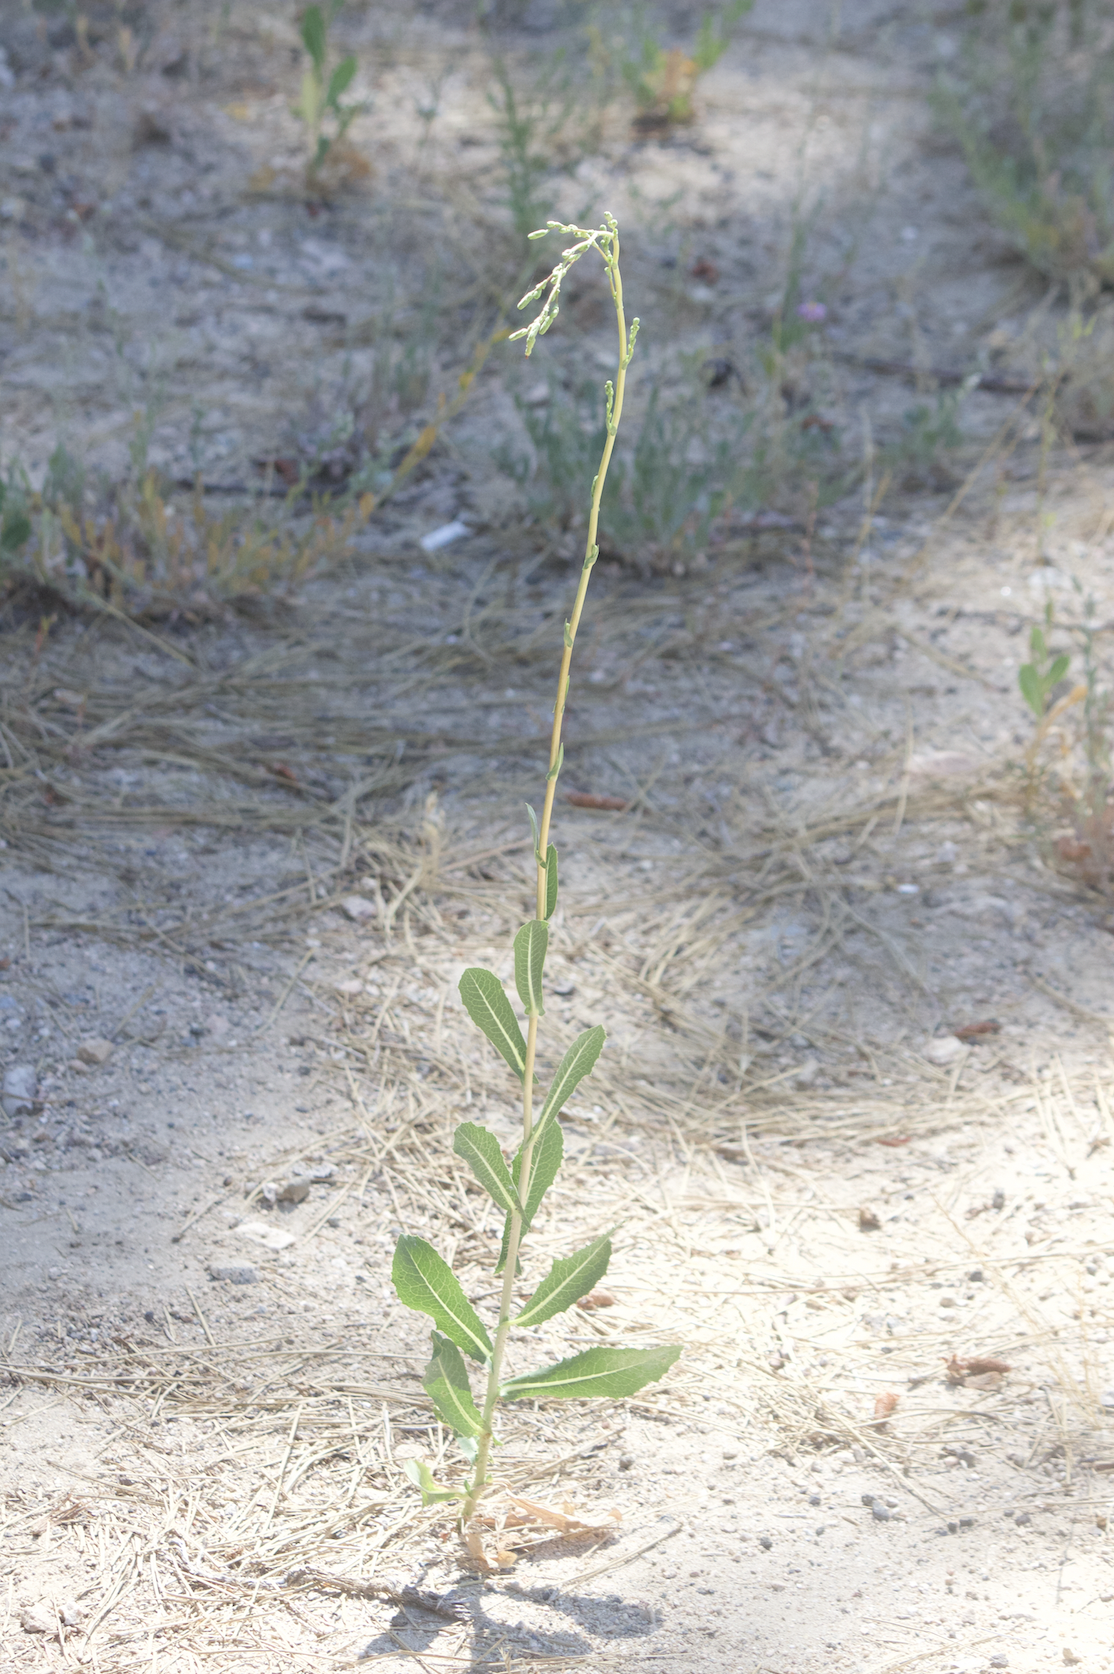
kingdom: Plantae
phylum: Tracheophyta
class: Magnoliopsida
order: Asterales
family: Asteraceae
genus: Lactuca
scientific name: Lactuca serriola
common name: Prickly lettuce
